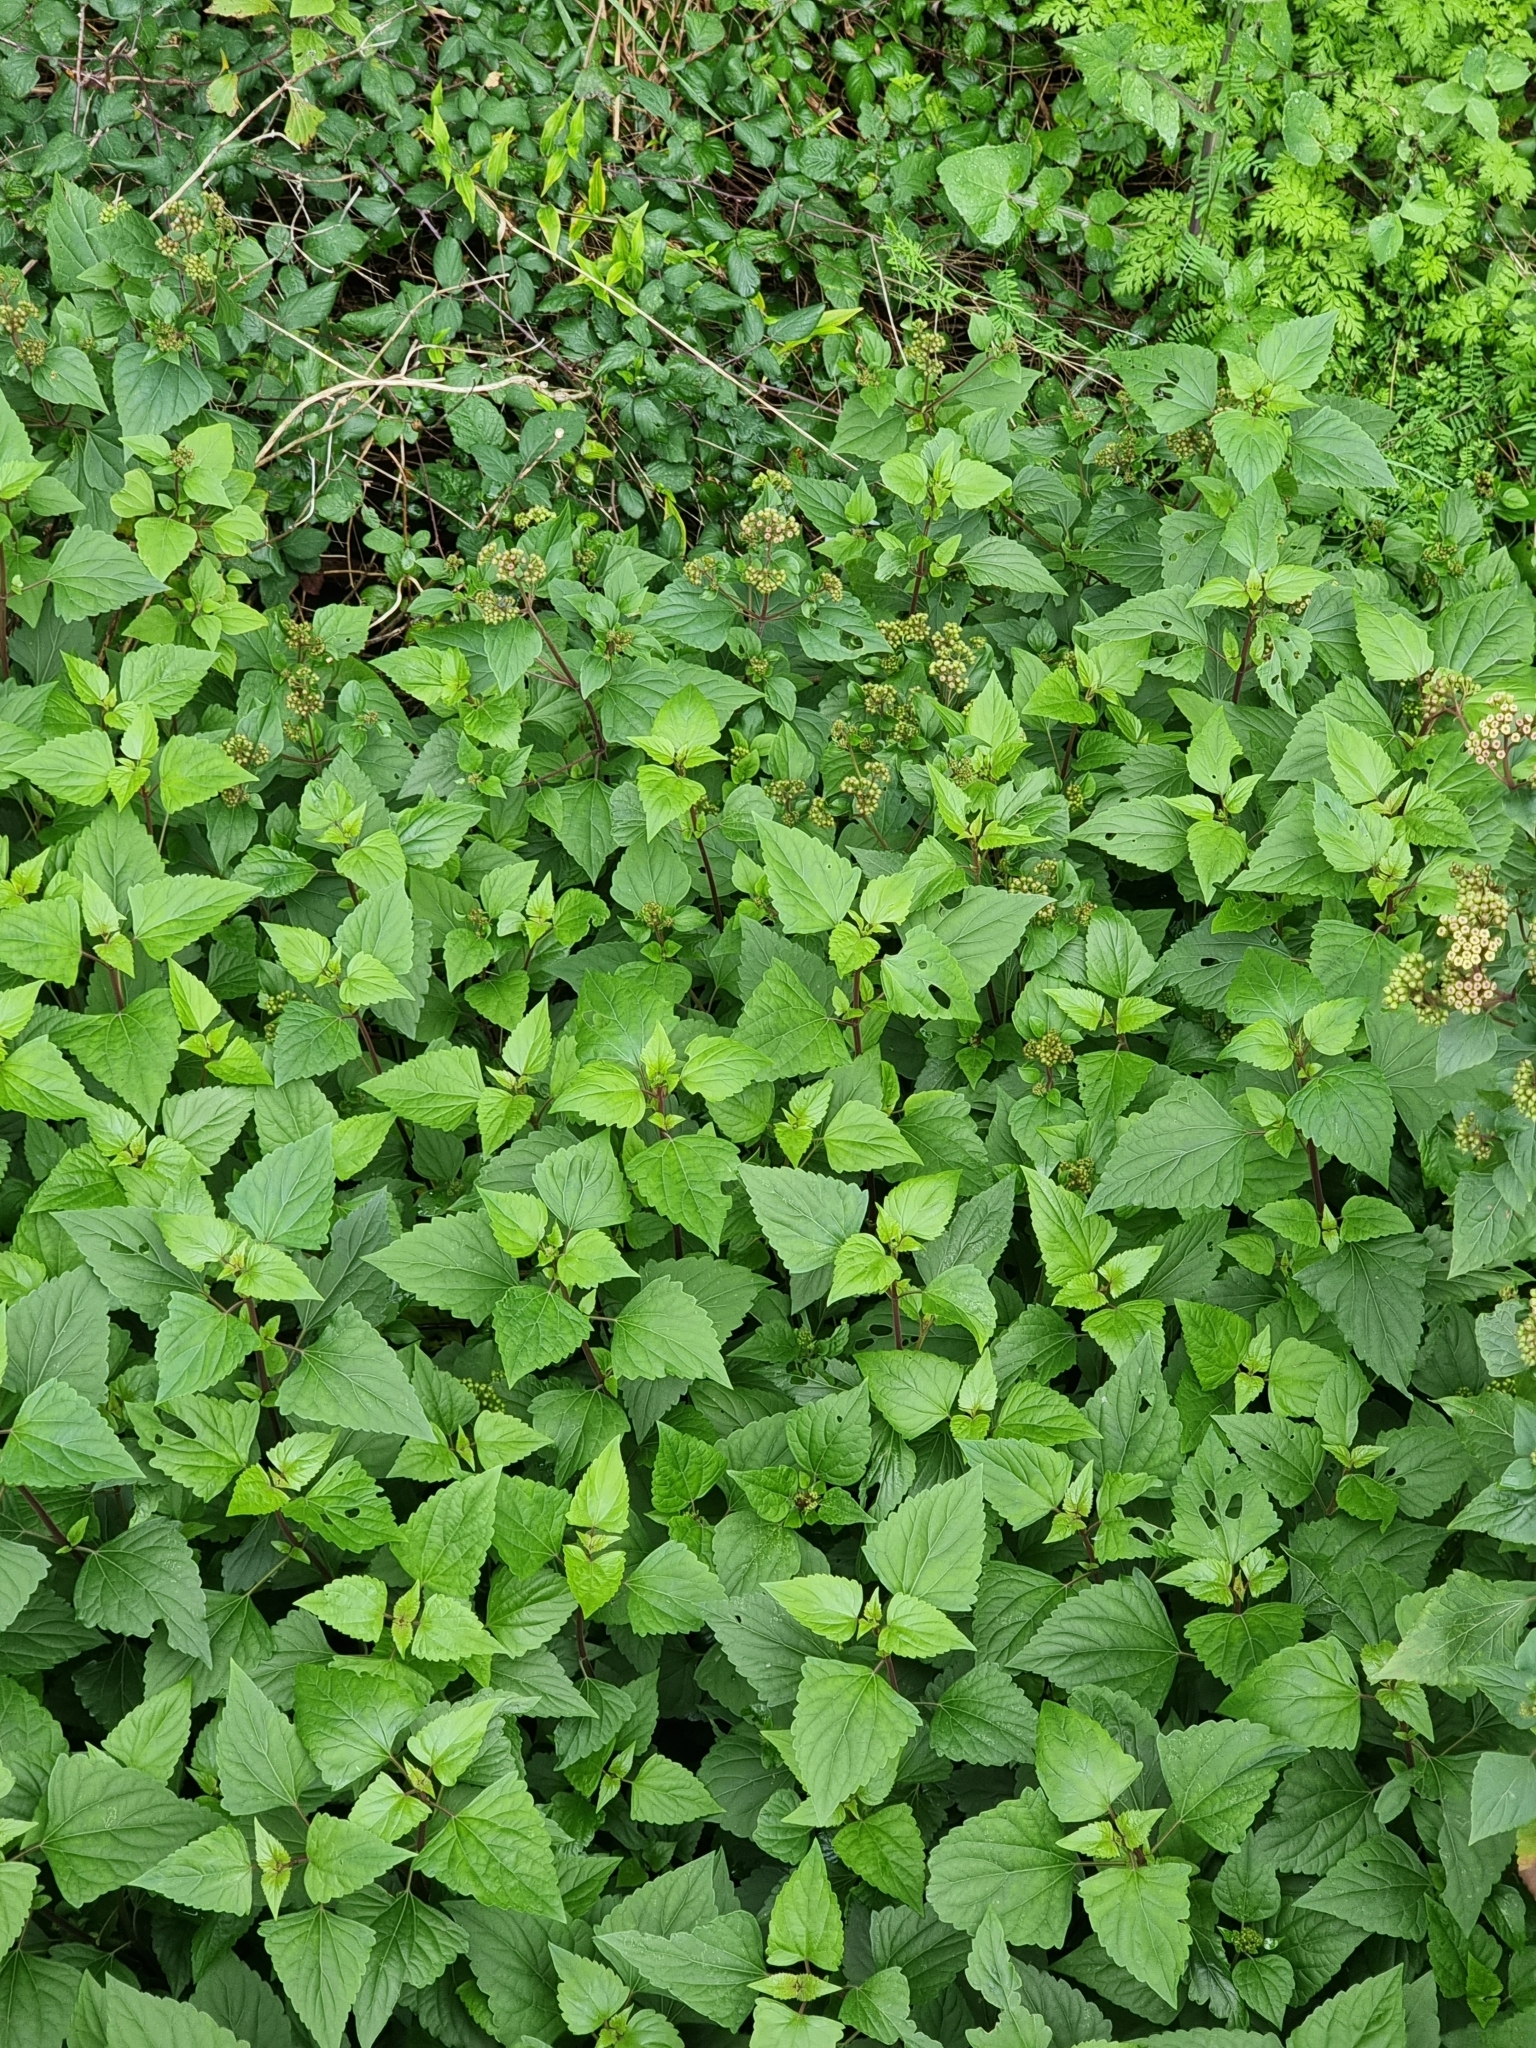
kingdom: Plantae
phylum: Tracheophyta
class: Magnoliopsida
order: Asterales
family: Asteraceae
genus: Ageratina
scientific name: Ageratina adenophora
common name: Sticky snakeroot
